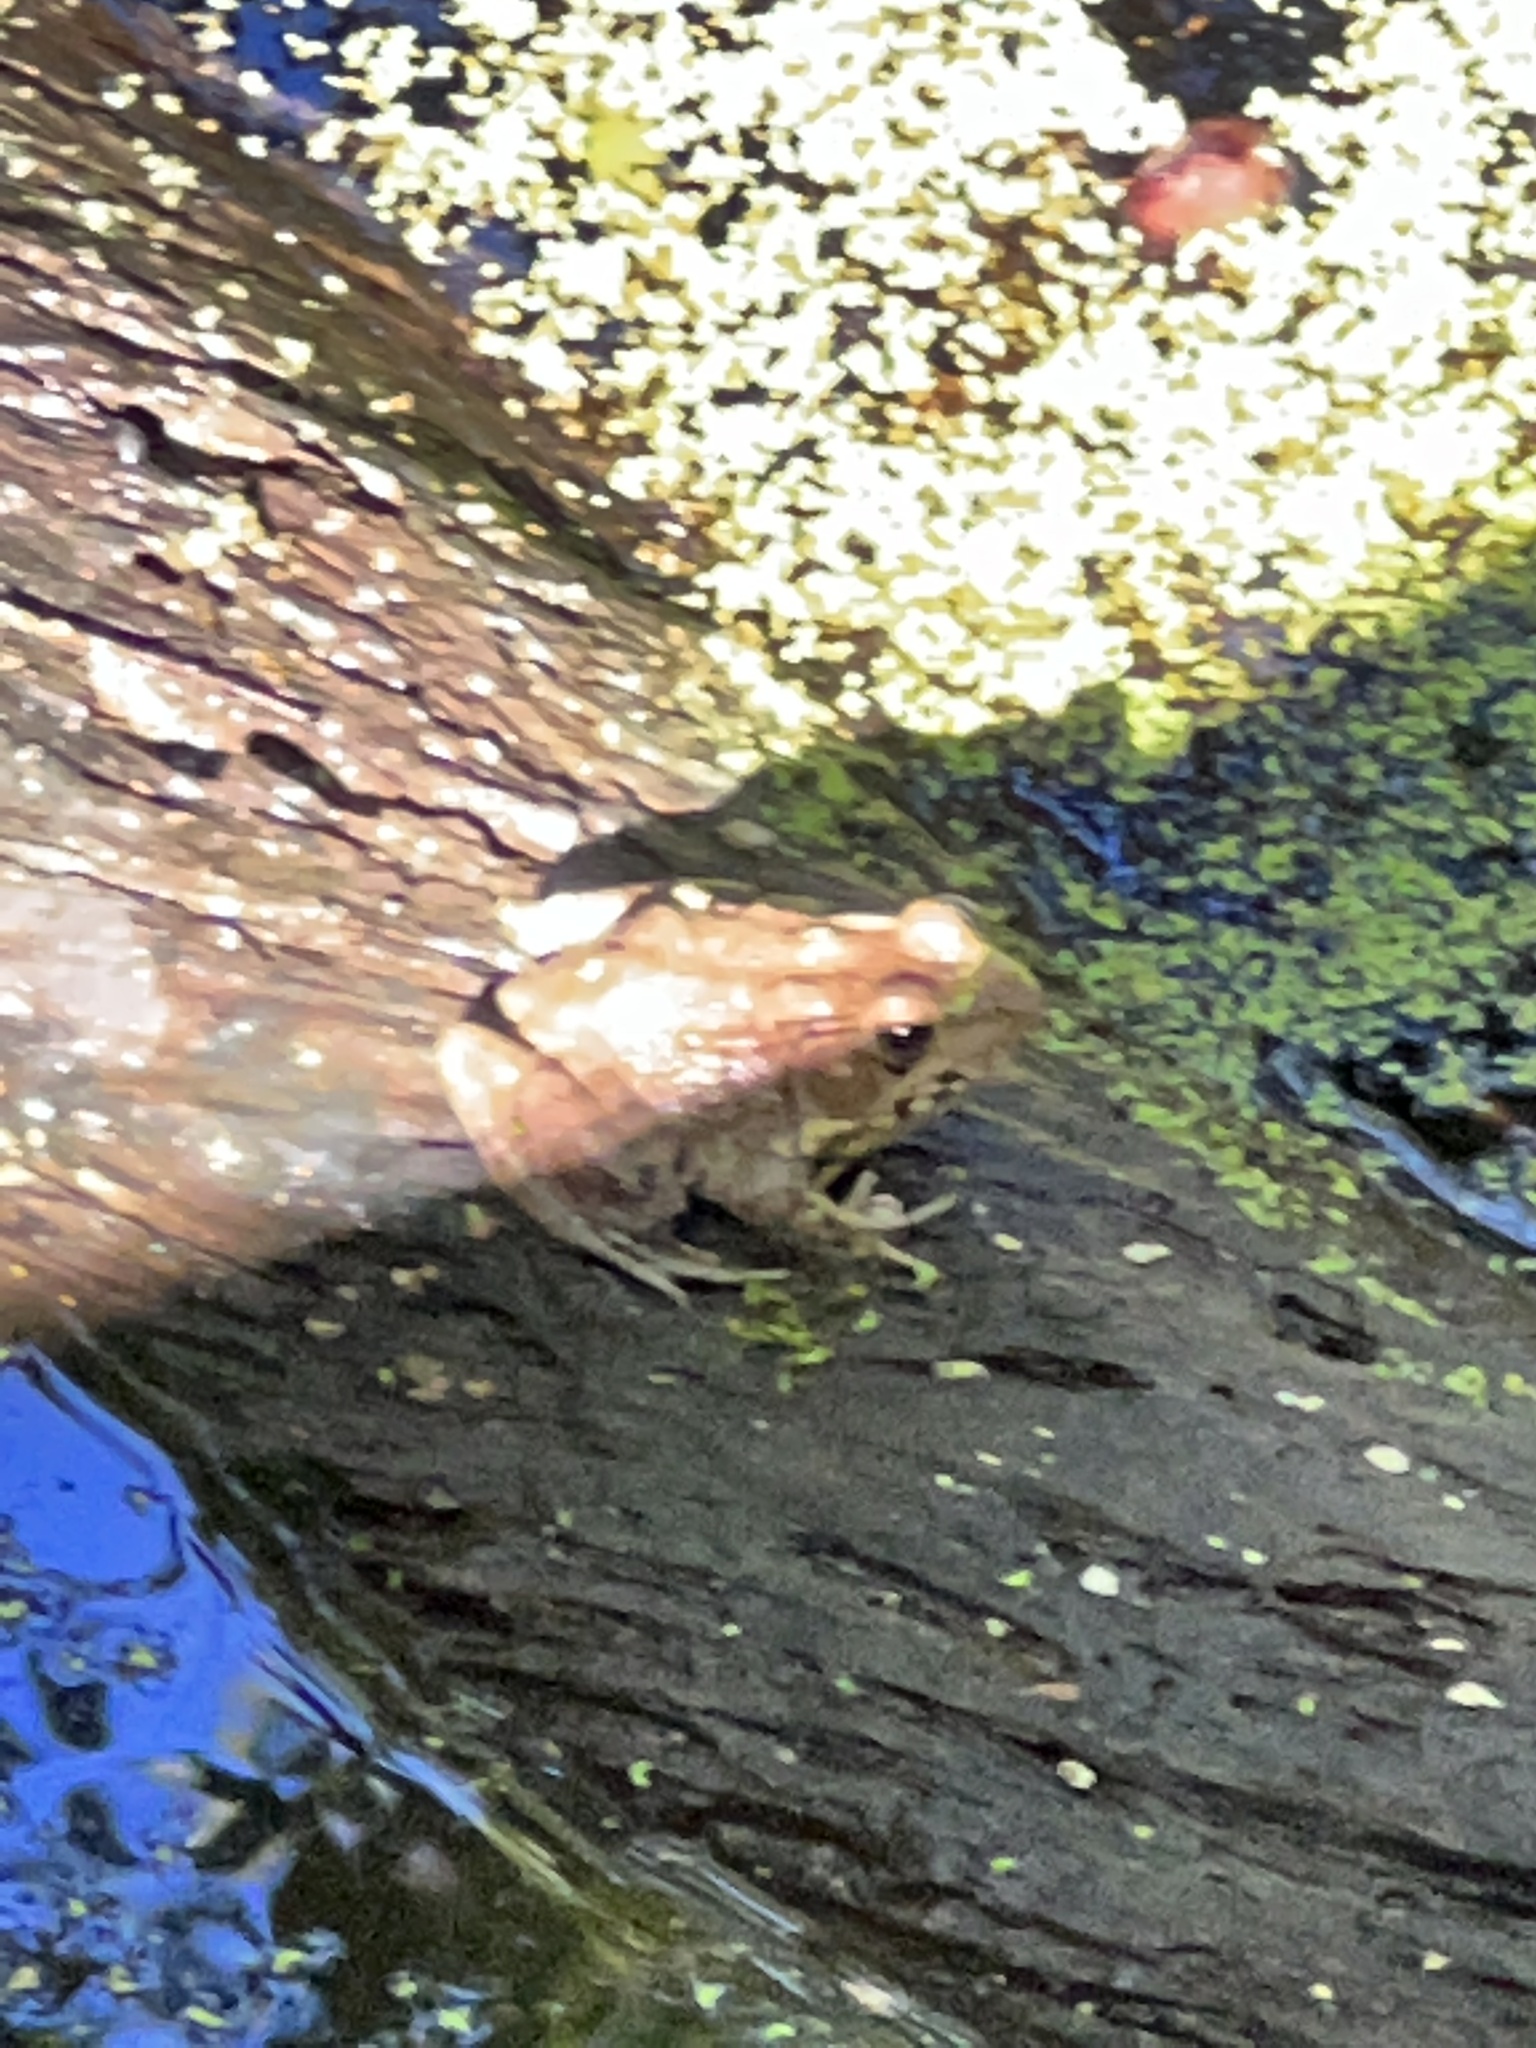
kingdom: Animalia
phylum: Chordata
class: Amphibia
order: Anura
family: Ranidae
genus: Lithobates
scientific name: Lithobates clamitans
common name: Green frog
